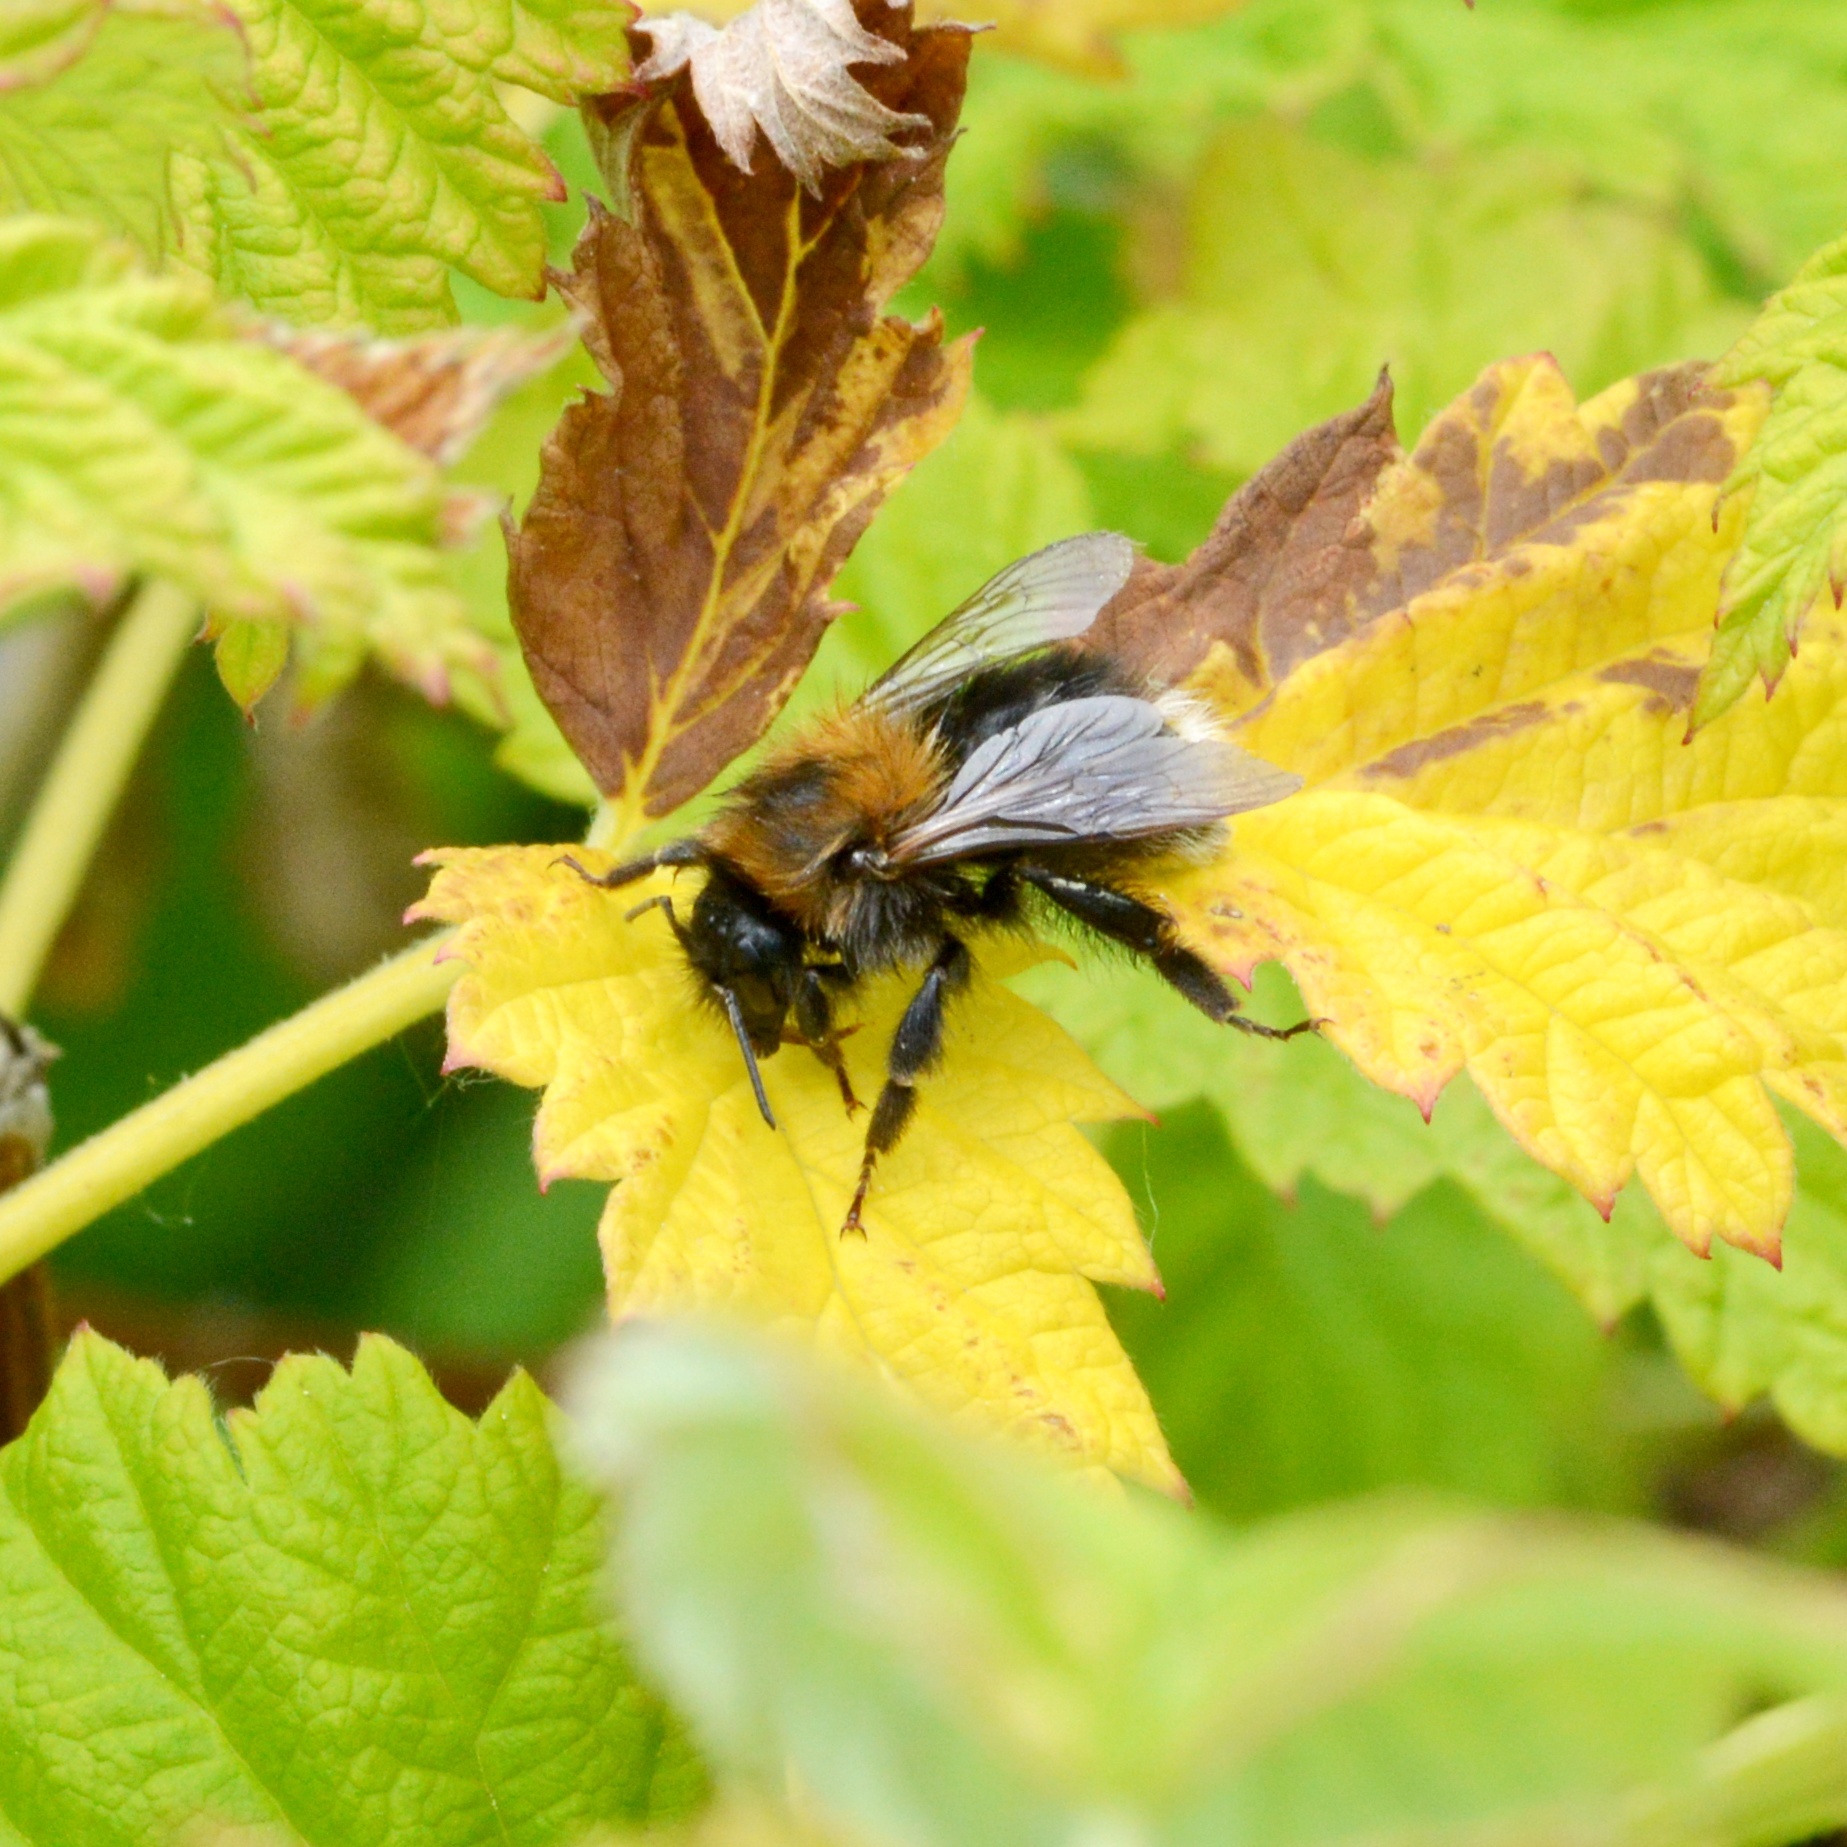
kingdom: Animalia
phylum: Arthropoda
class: Insecta
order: Hymenoptera
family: Apidae
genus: Bombus
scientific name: Bombus hypnorum
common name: New garden bumblebee
